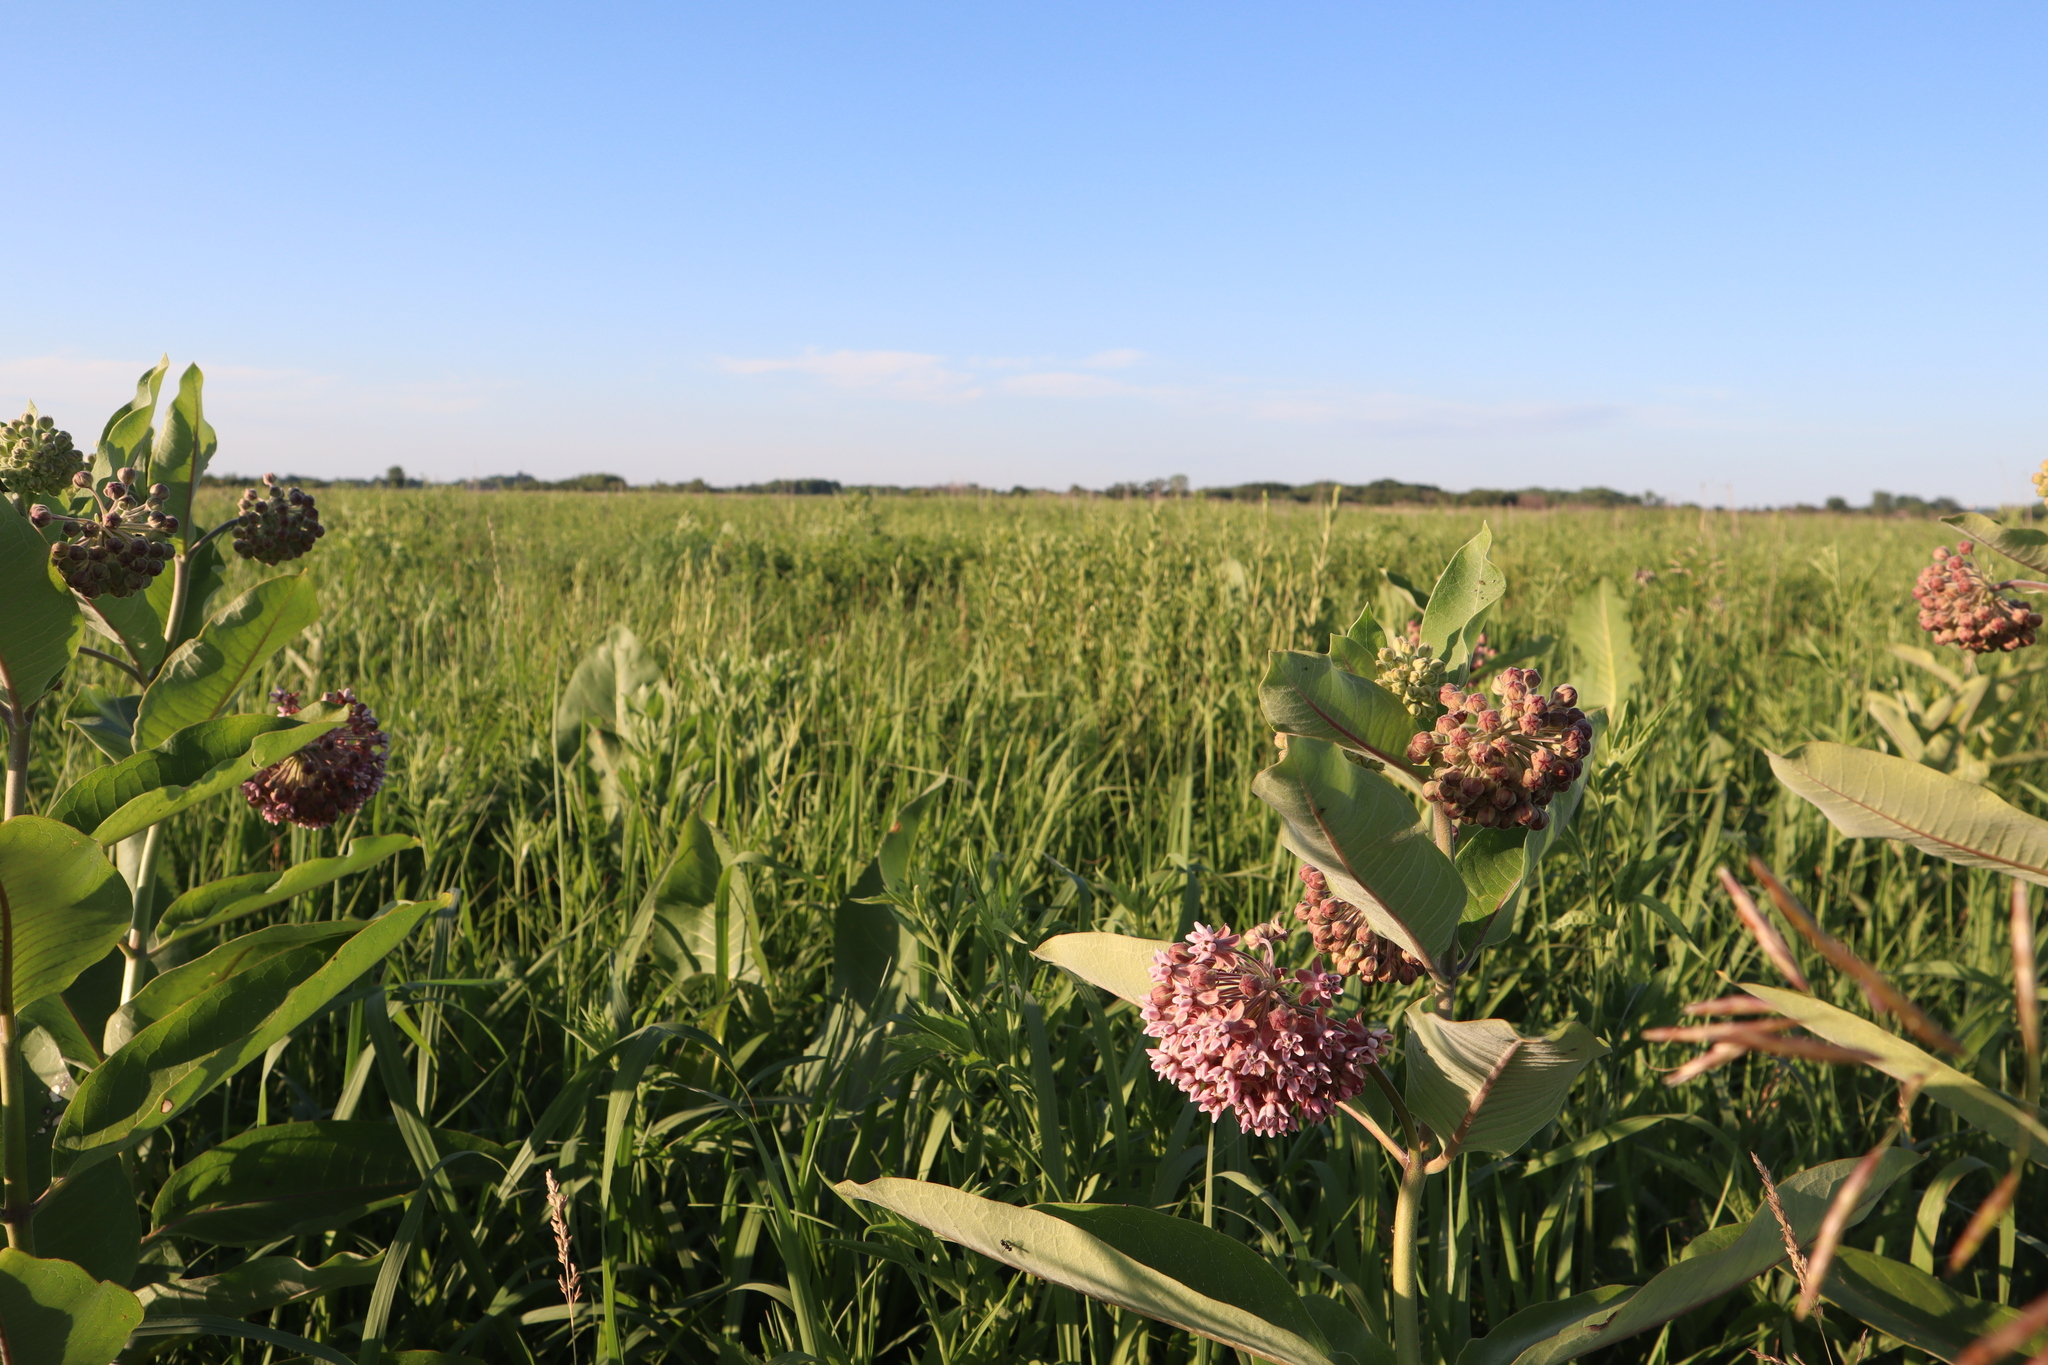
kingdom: Plantae
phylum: Tracheophyta
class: Magnoliopsida
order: Gentianales
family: Apocynaceae
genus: Asclepias
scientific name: Asclepias syriaca
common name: Common milkweed
